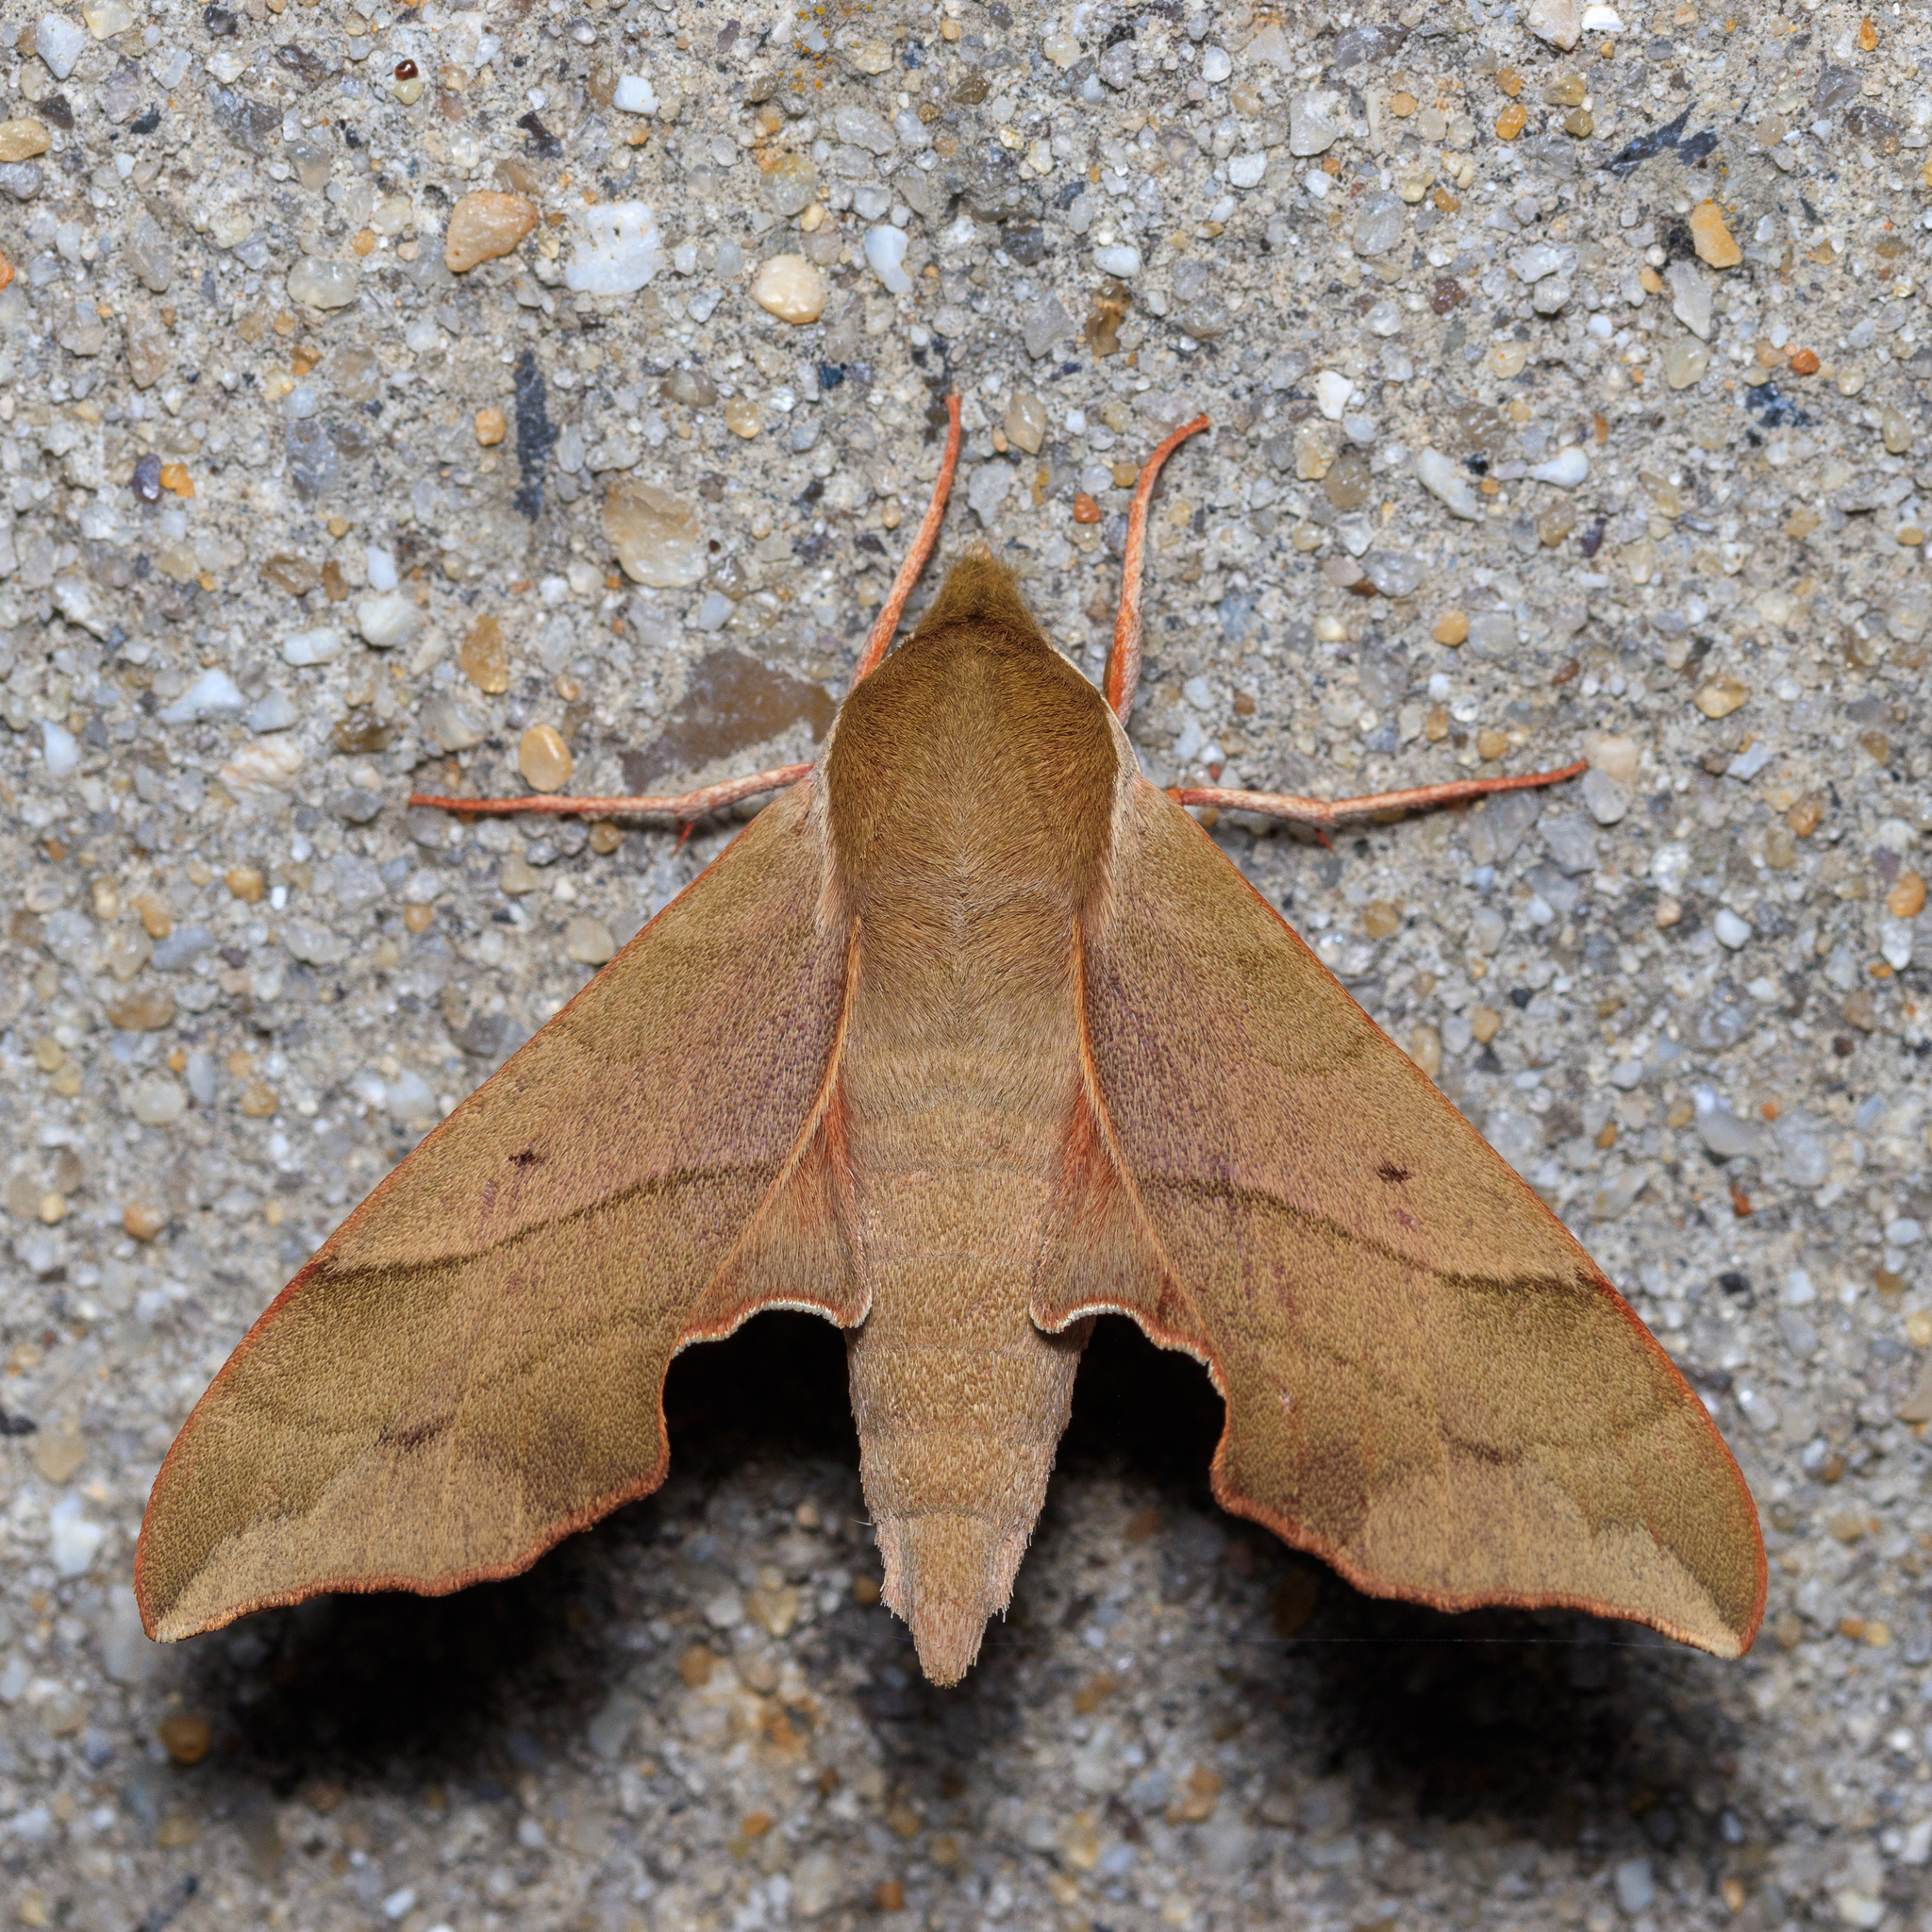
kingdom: Animalia
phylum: Arthropoda
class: Insecta
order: Lepidoptera
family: Sphingidae
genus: Darapsa
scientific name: Darapsa myron
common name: Hog sphinx
